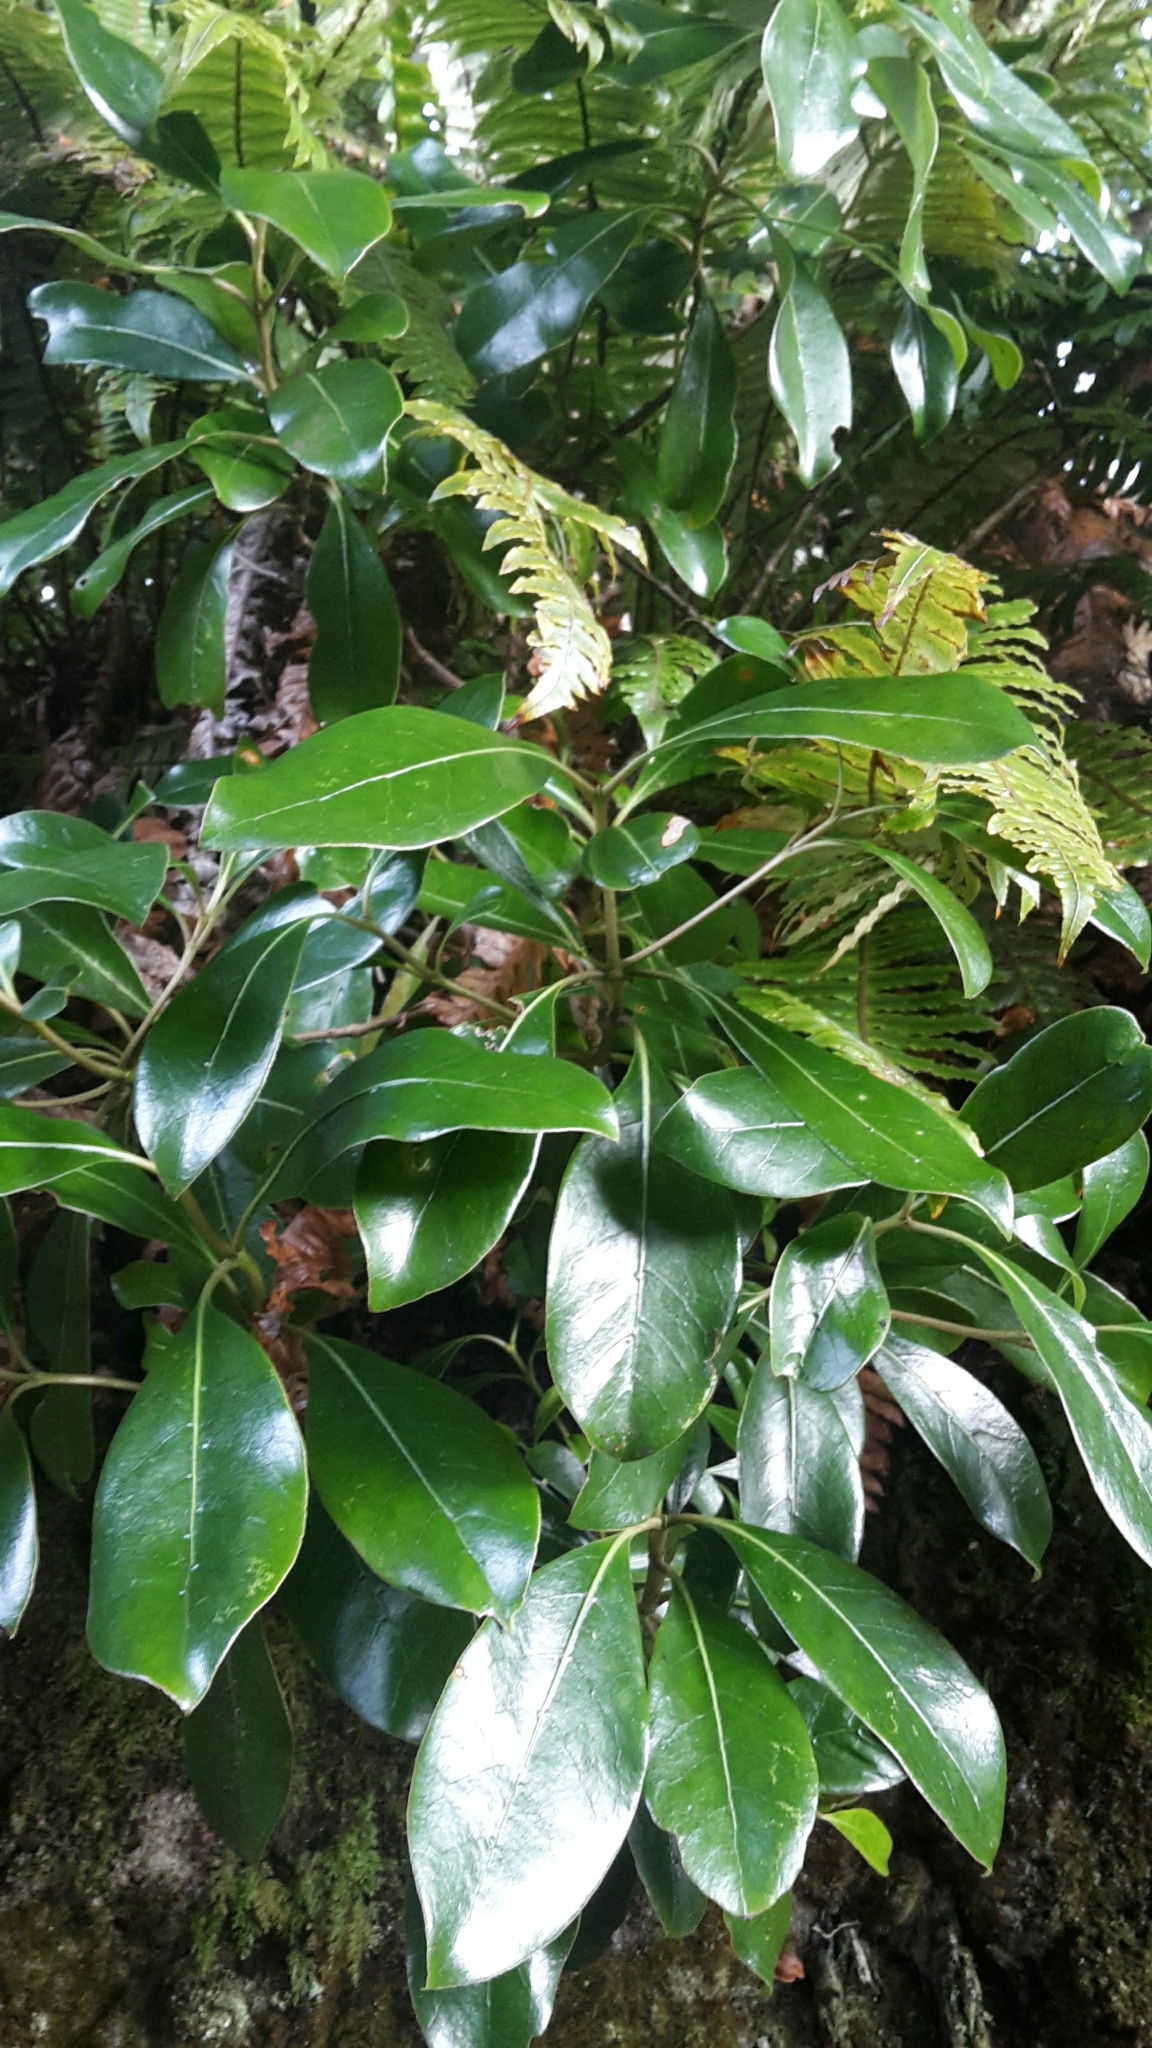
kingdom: Plantae
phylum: Tracheophyta
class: Magnoliopsida
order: Gentianales
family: Rubiaceae
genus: Coprosma
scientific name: Coprosma lucida
